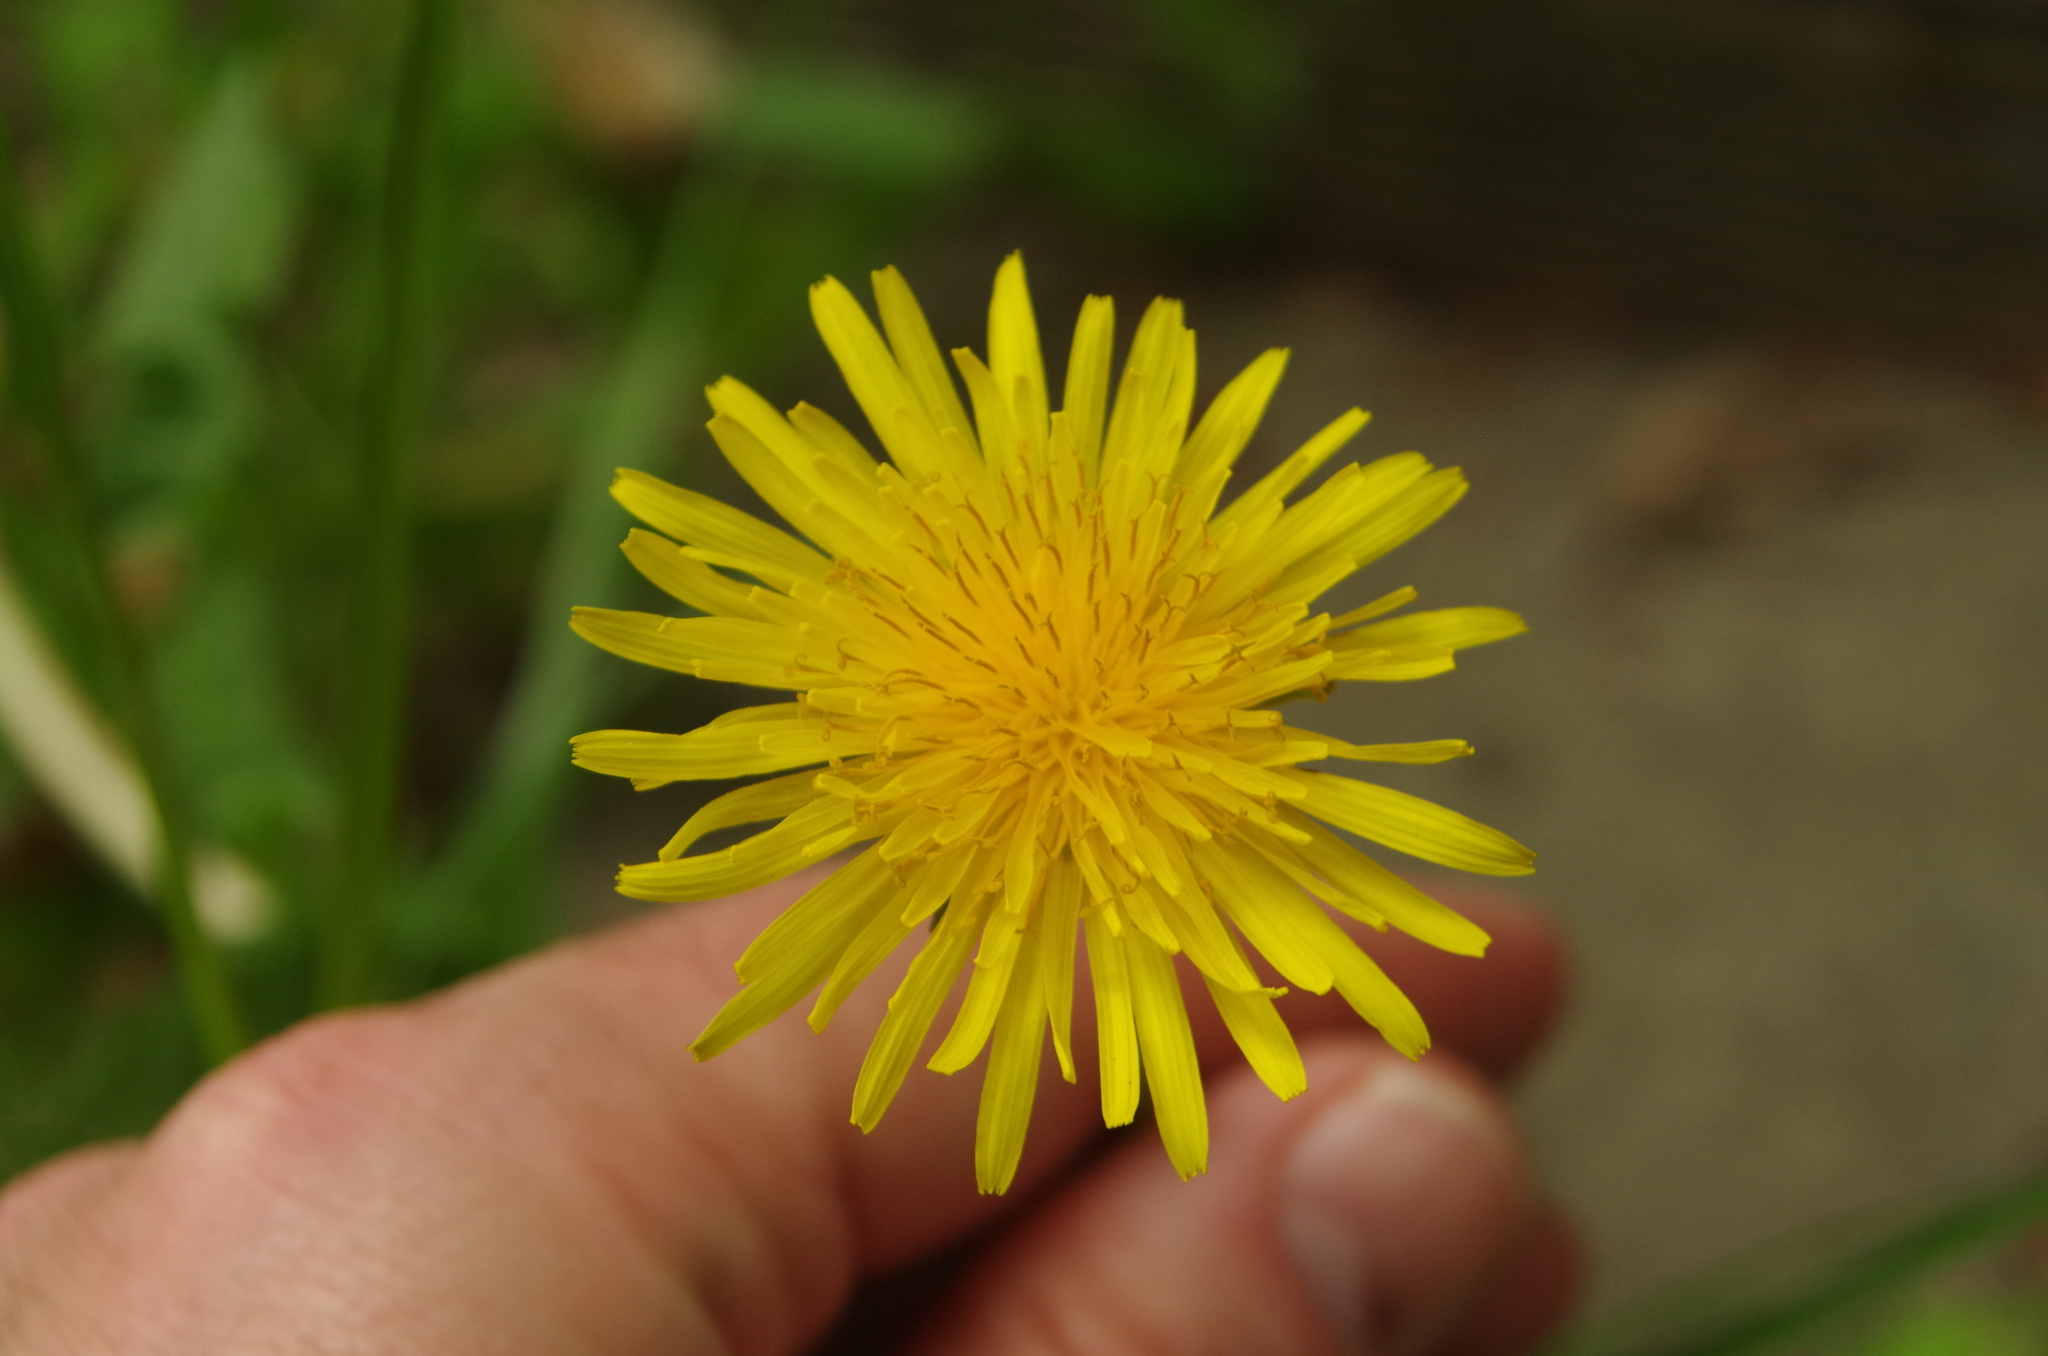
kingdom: Plantae
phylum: Tracheophyta
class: Magnoliopsida
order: Asterales
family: Asteraceae
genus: Taraxacum
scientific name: Taraxacum officinale
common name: Common dandelion
